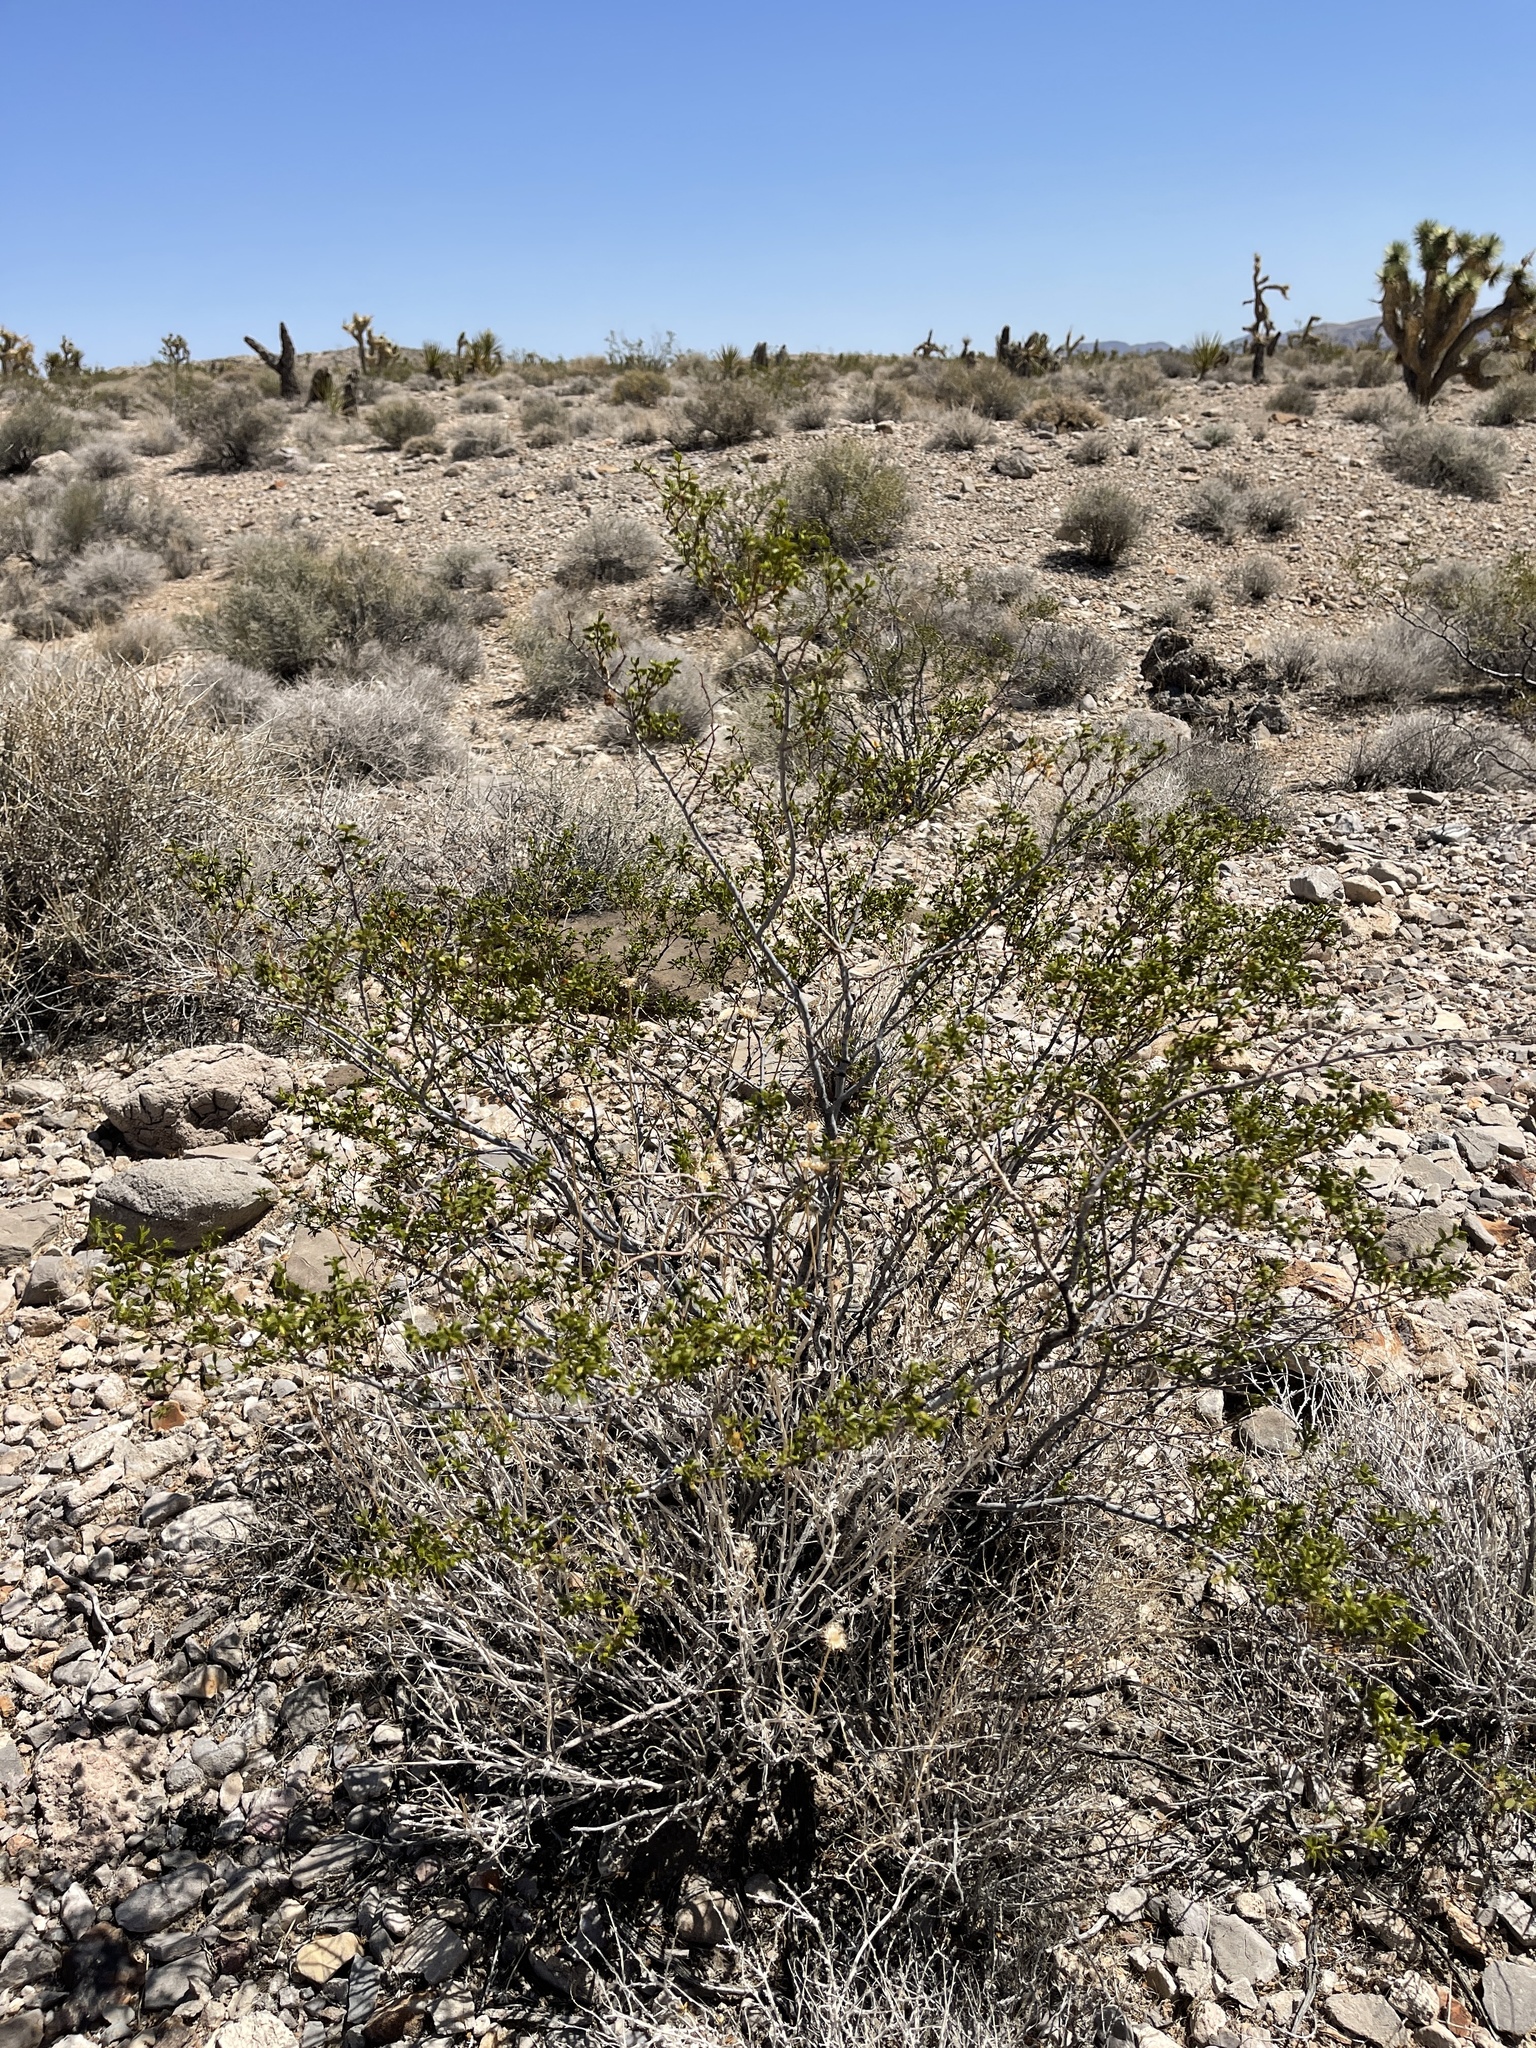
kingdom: Plantae
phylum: Tracheophyta
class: Magnoliopsida
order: Zygophyllales
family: Zygophyllaceae
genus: Larrea
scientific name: Larrea tridentata
